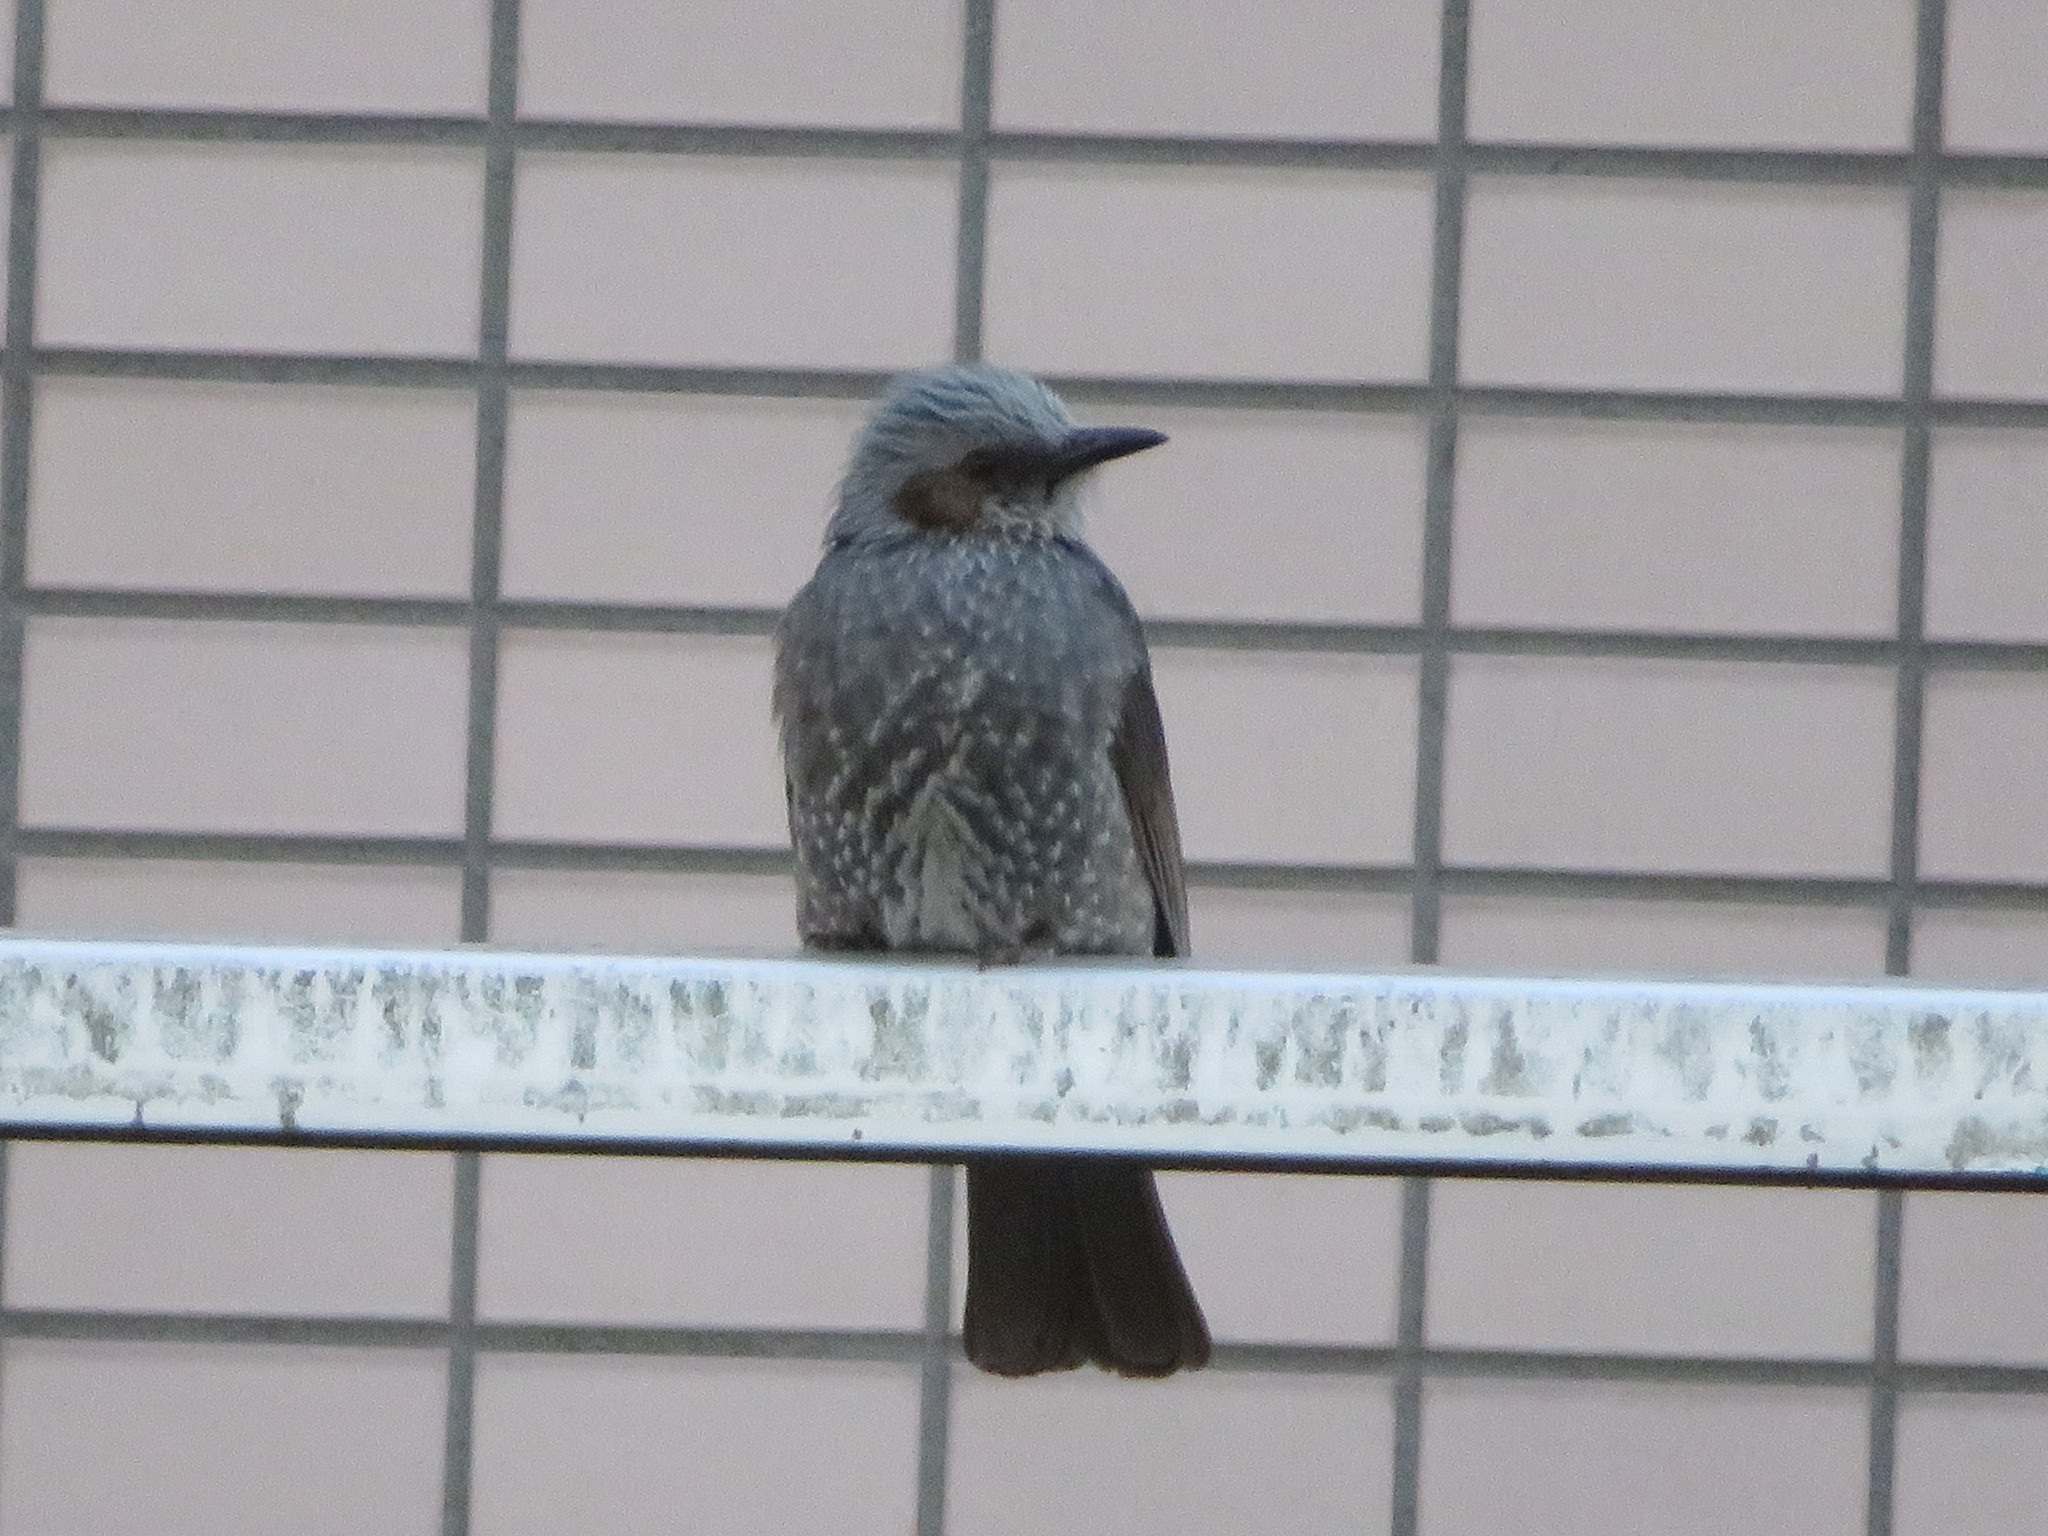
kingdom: Animalia
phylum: Chordata
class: Aves
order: Passeriformes
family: Pycnonotidae
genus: Hypsipetes
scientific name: Hypsipetes amaurotis
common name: Brown-eared bulbul
